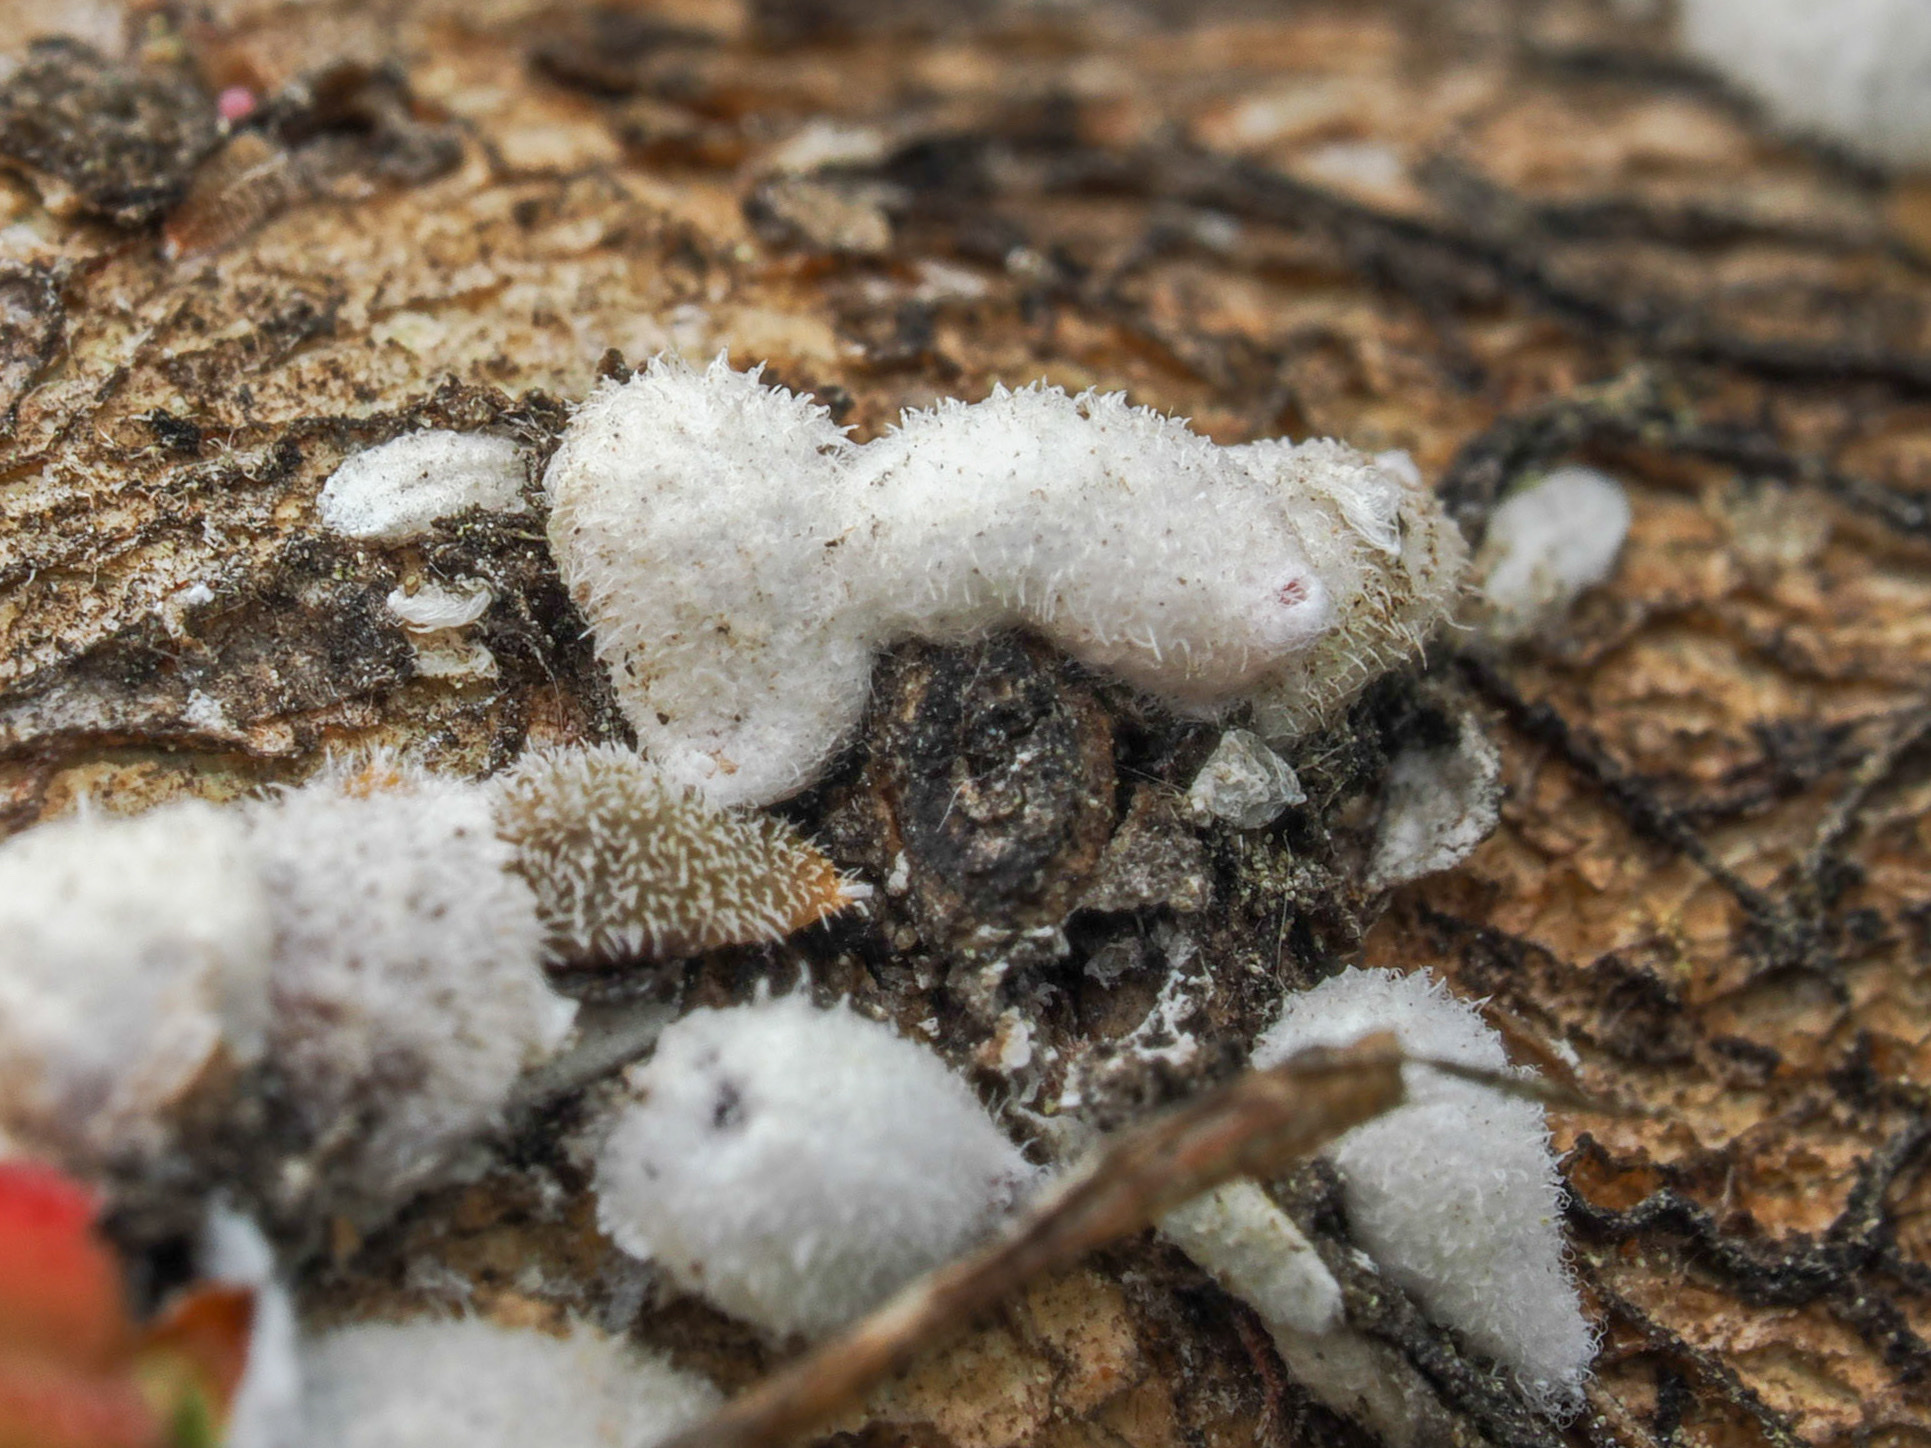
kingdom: Animalia
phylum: Arthropoda
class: Insecta
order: Hemiptera
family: Eriococcidae
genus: Eriococcus
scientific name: Eriococcus lagerstroemiae
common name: Crapemyrtle bark scale
